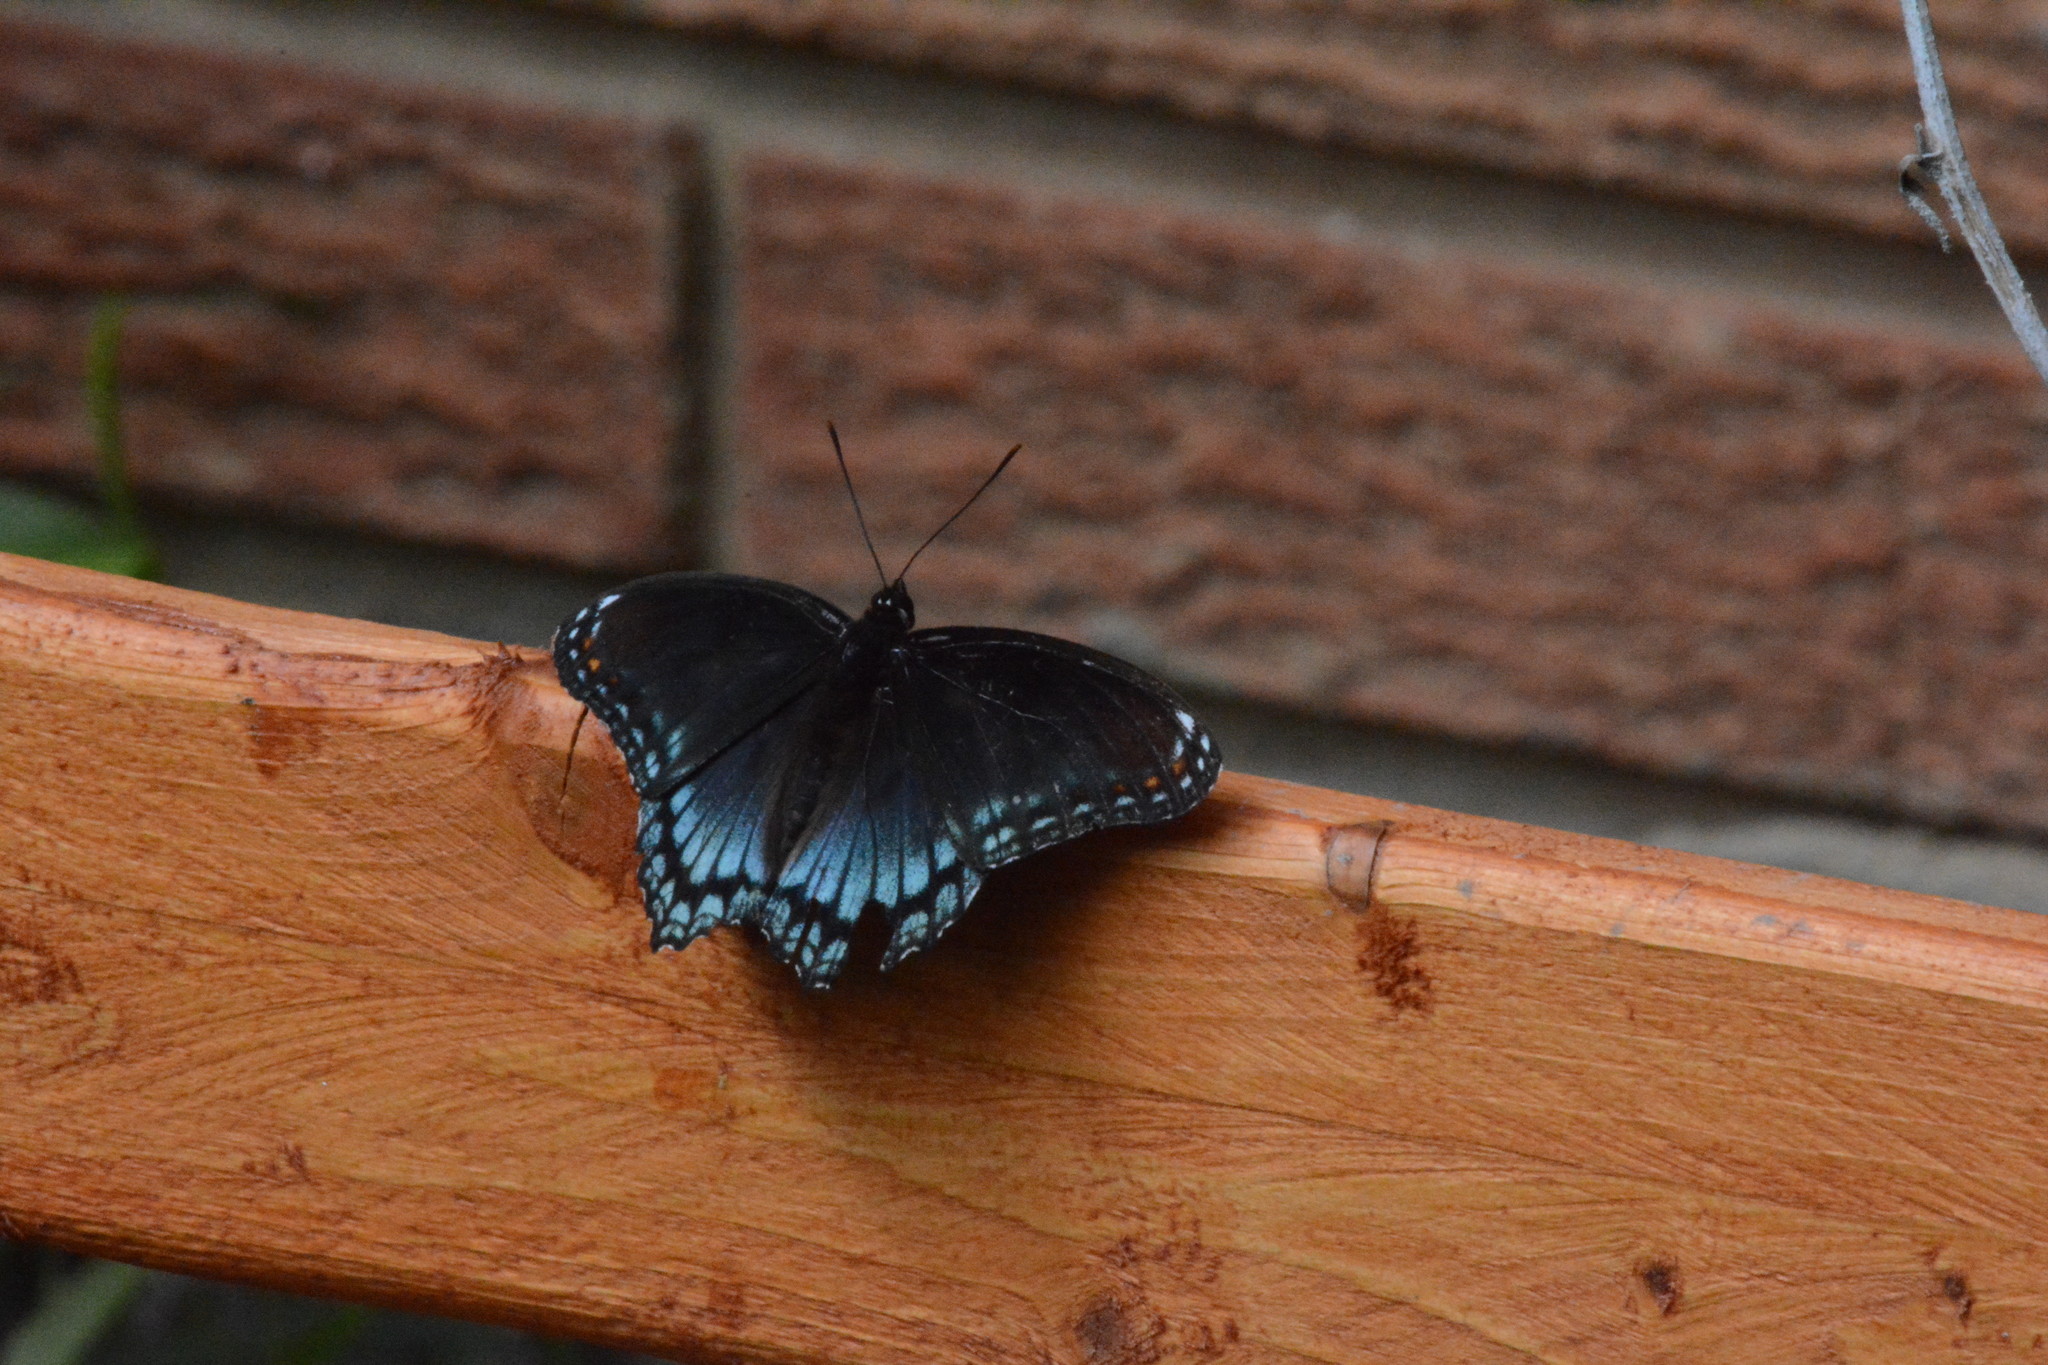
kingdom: Animalia
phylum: Arthropoda
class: Insecta
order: Lepidoptera
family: Nymphalidae
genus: Limenitis
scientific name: Limenitis astyanax
